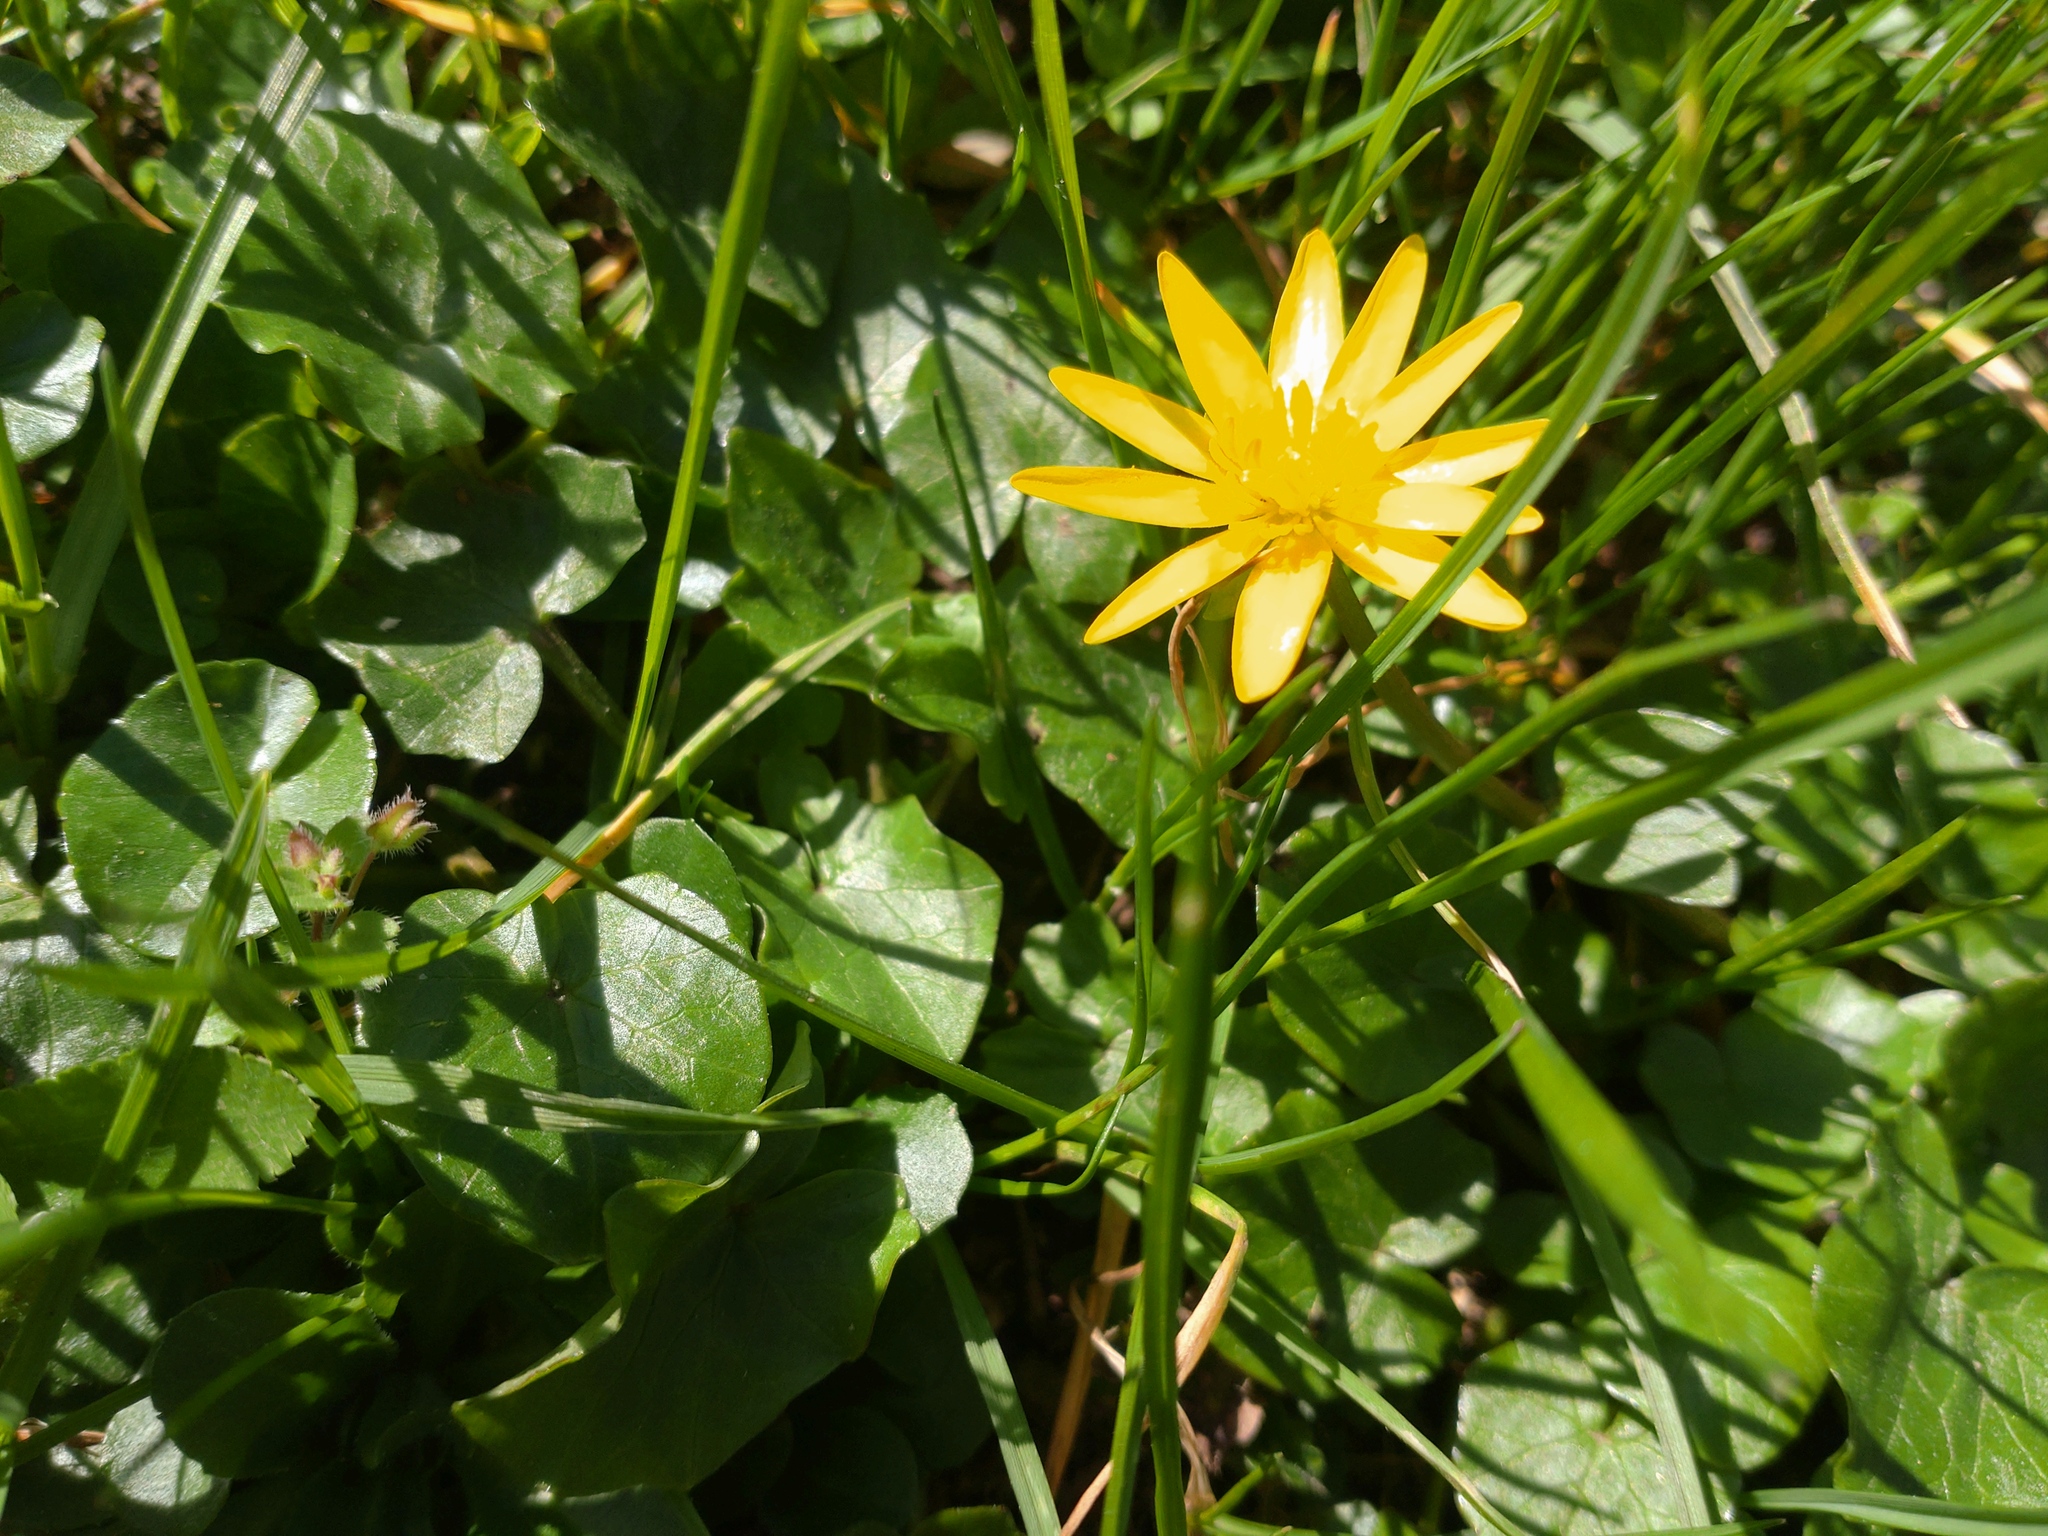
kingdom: Plantae
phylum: Tracheophyta
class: Magnoliopsida
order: Ranunculales
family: Ranunculaceae
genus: Ficaria
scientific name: Ficaria verna
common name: Lesser celandine
